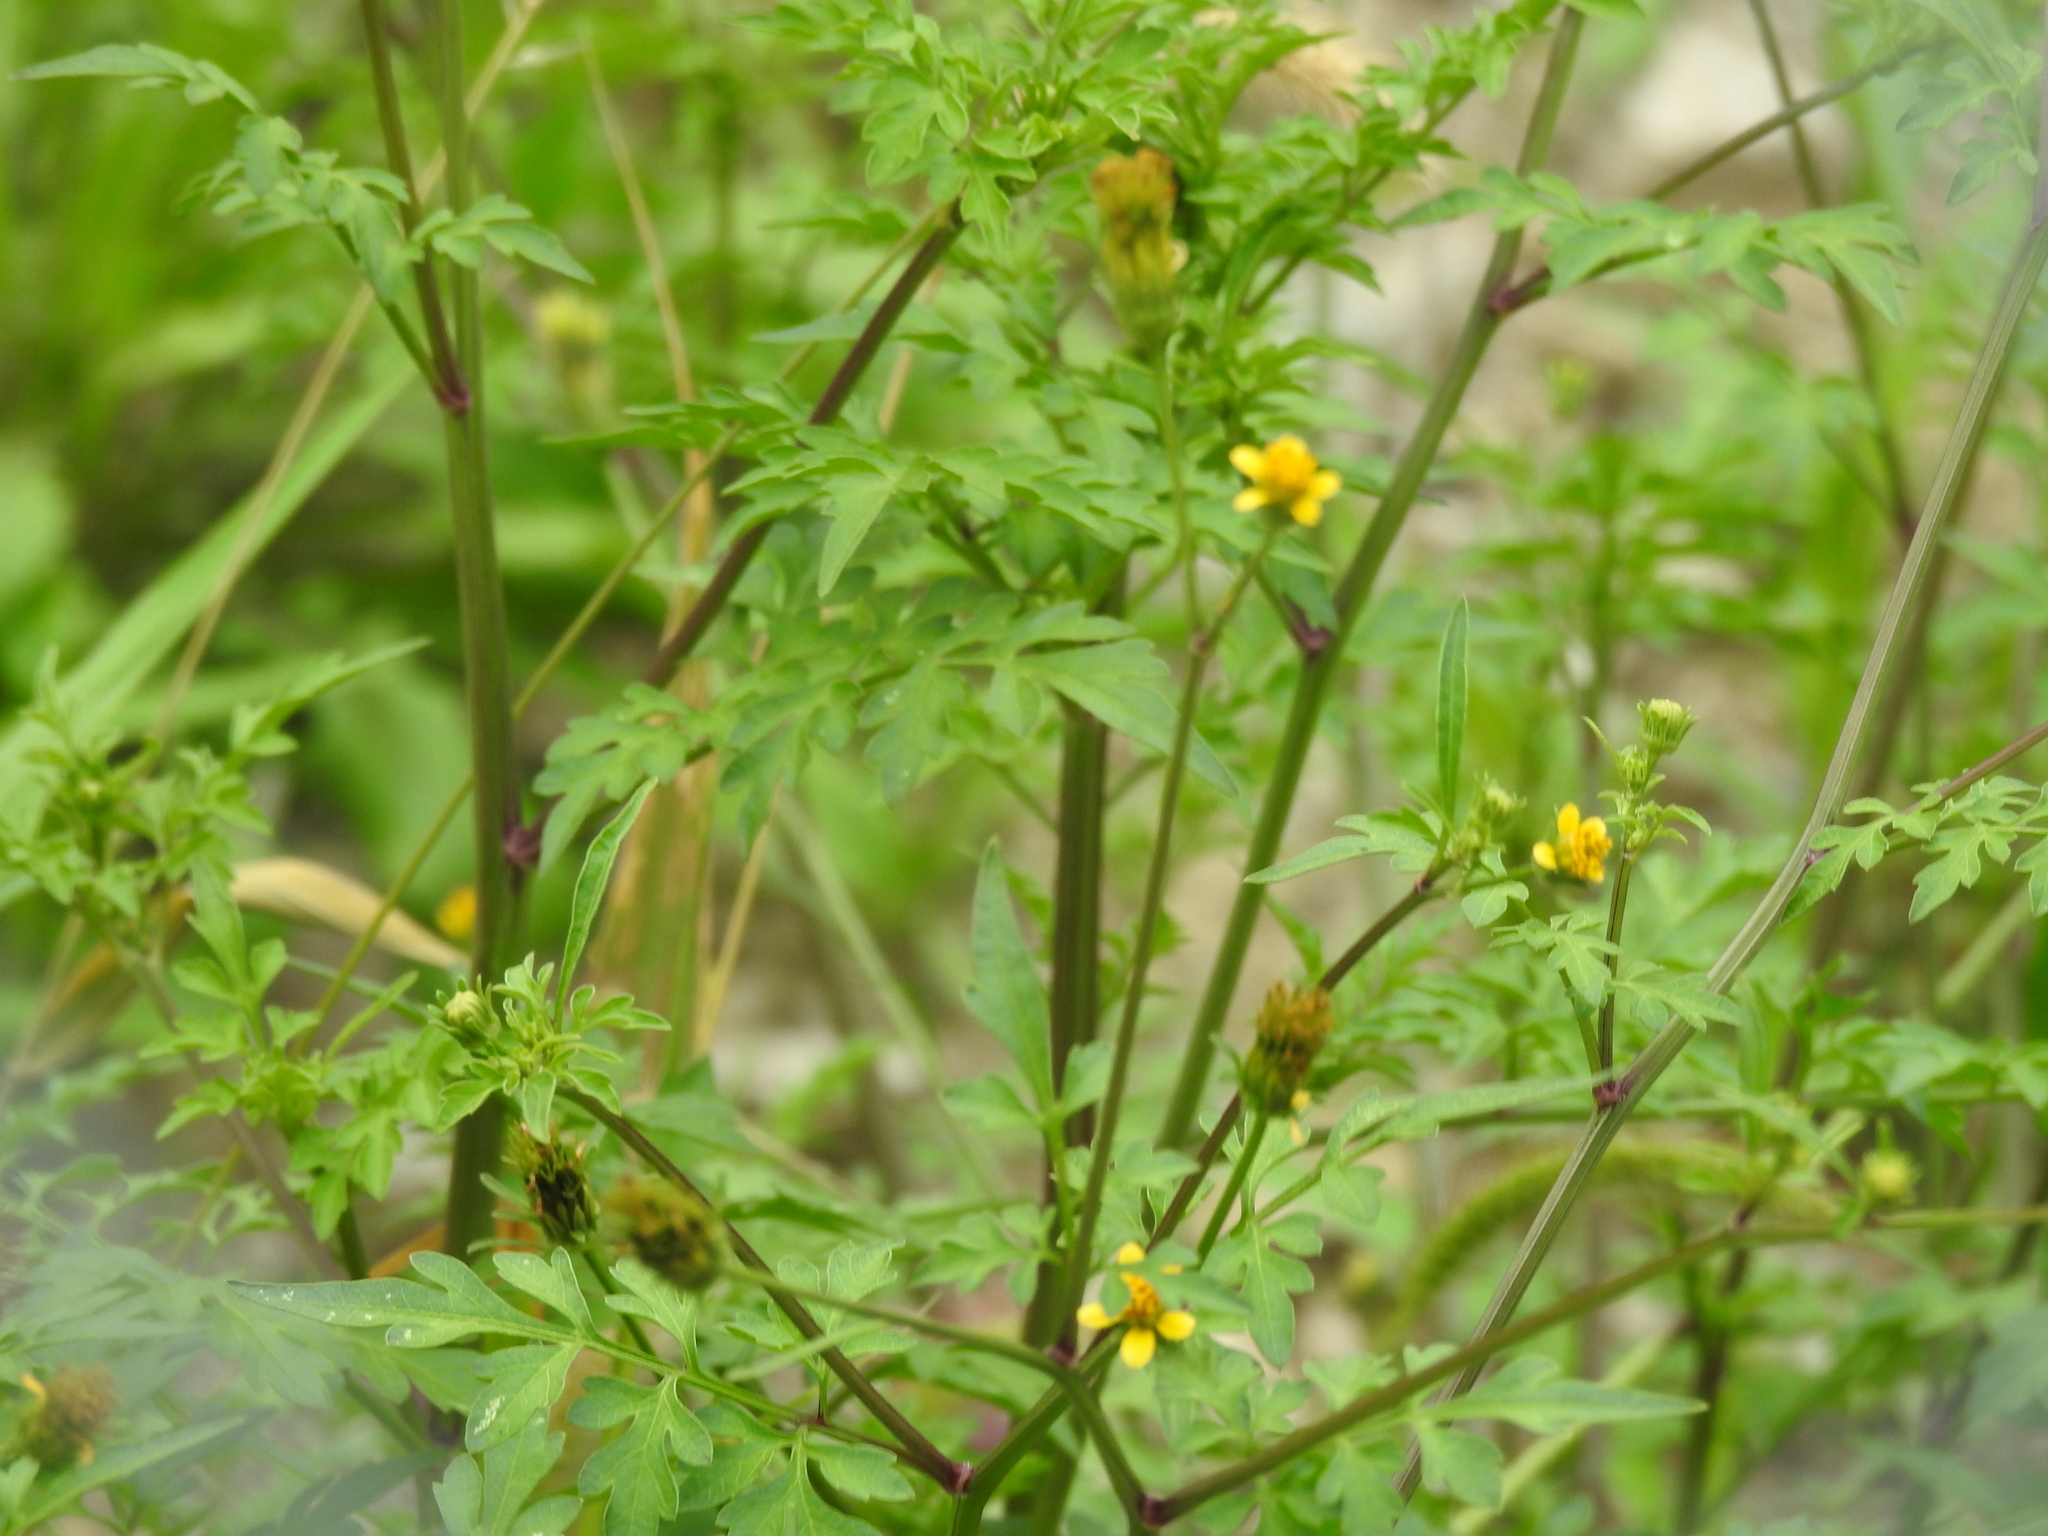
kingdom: Plantae
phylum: Tracheophyta
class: Magnoliopsida
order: Asterales
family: Asteraceae
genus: Bidens
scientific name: Bidens bipinnata
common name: Spanish-needles
